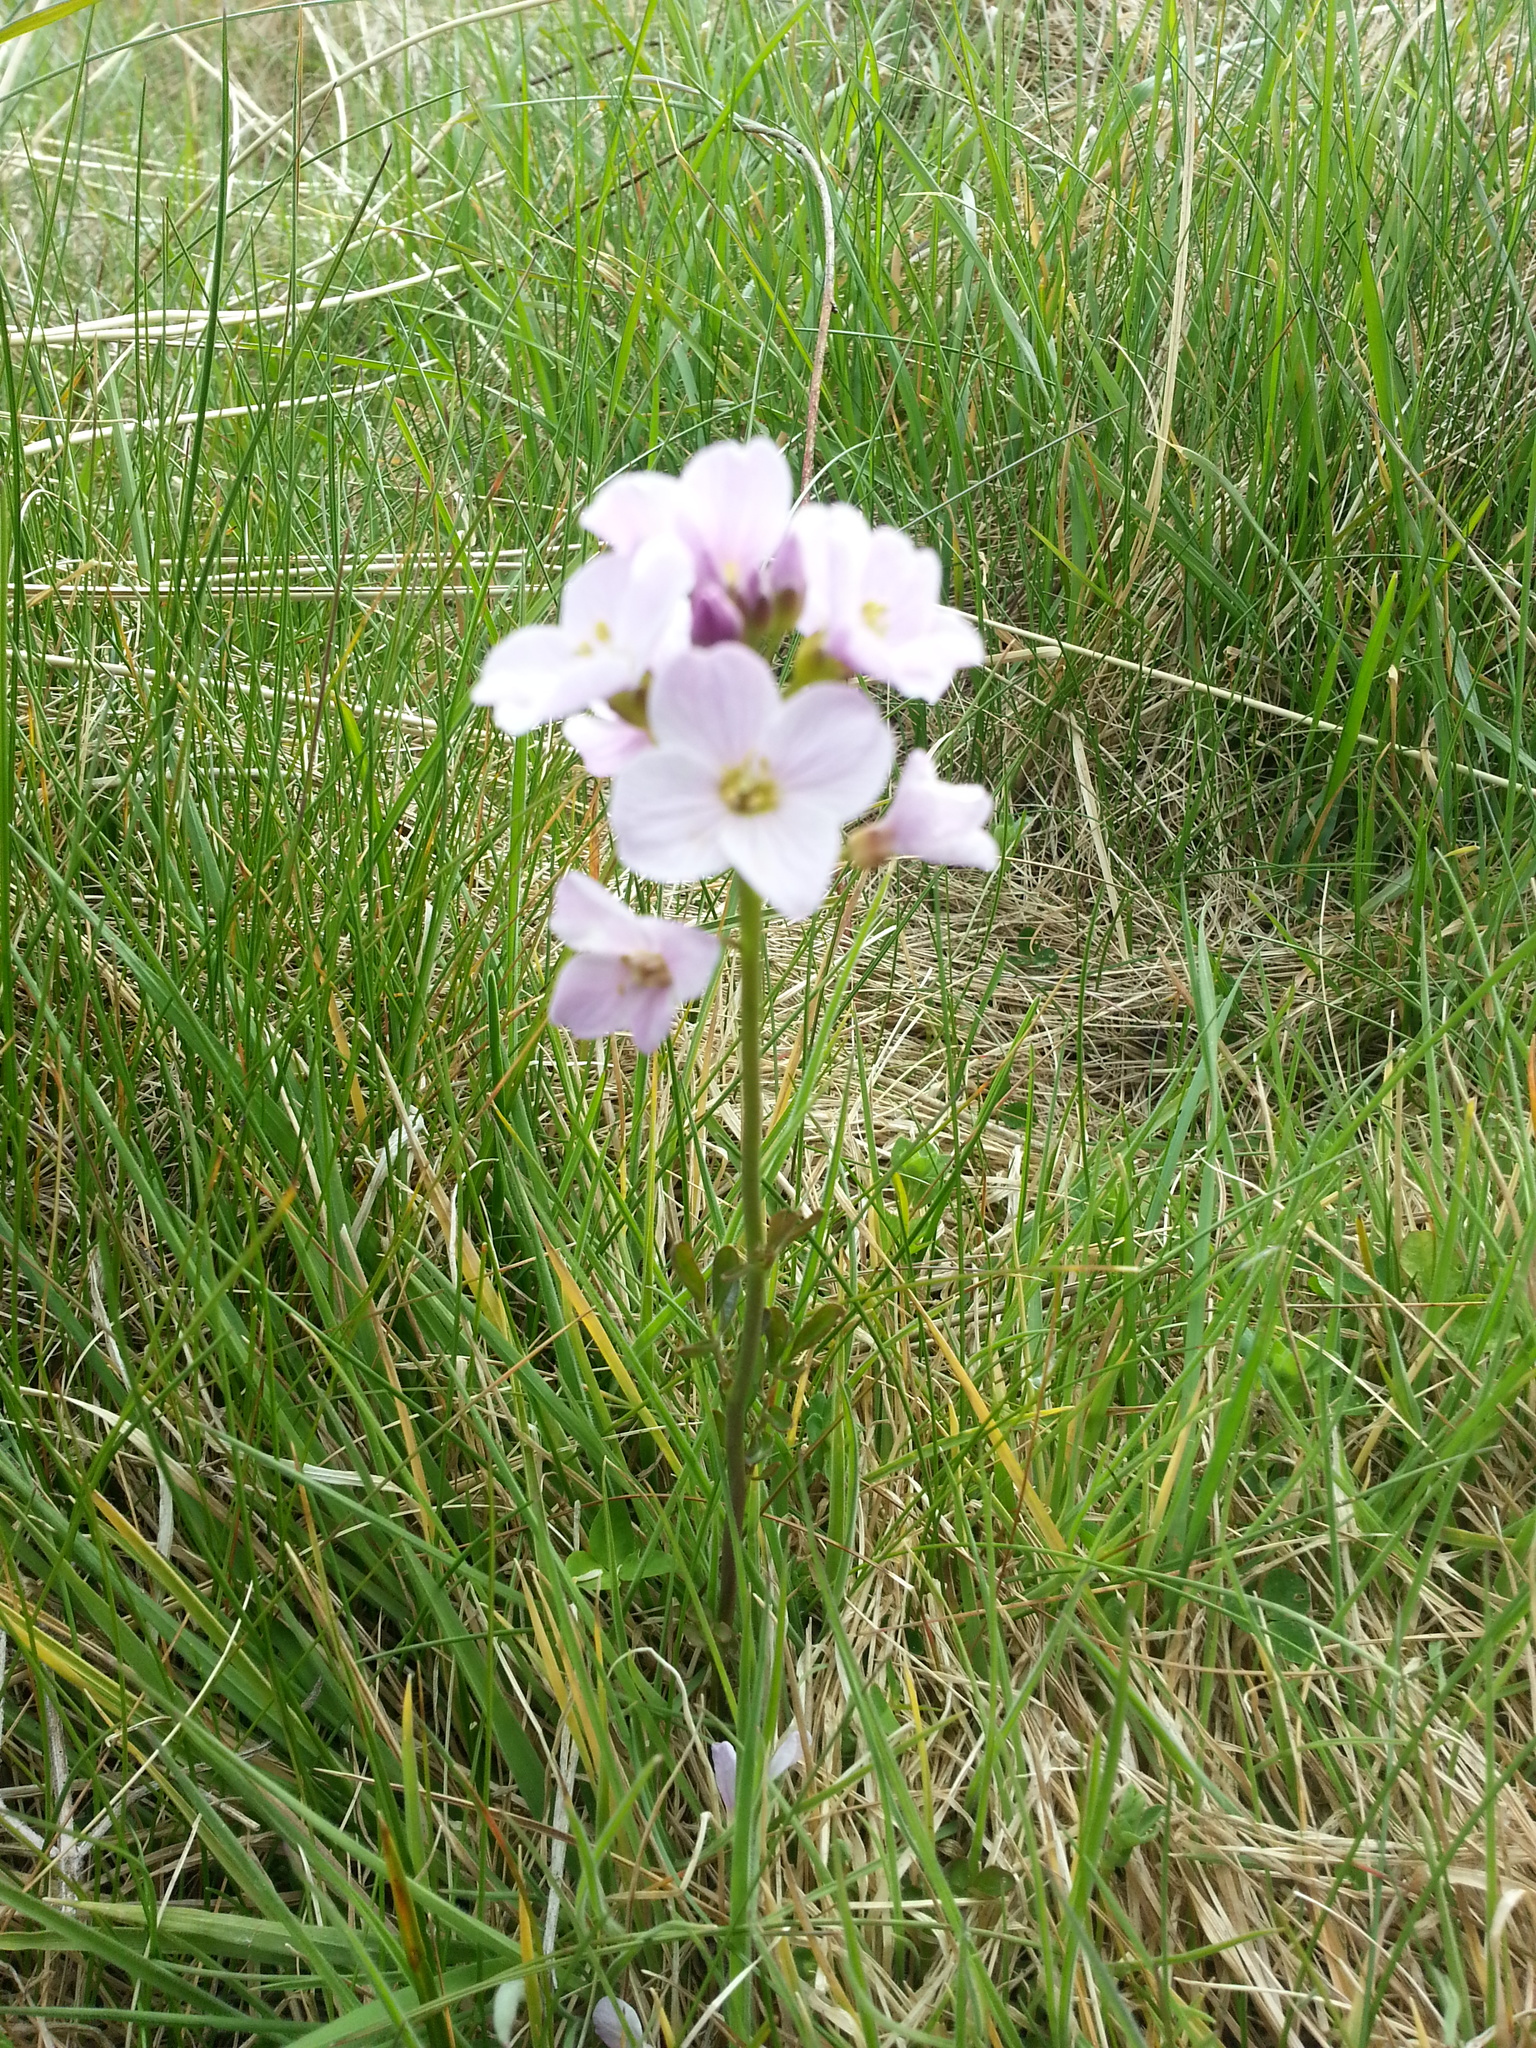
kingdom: Plantae
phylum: Tracheophyta
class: Magnoliopsida
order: Brassicales
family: Brassicaceae
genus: Cardamine
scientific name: Cardamine pratensis
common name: Cuckoo flower
